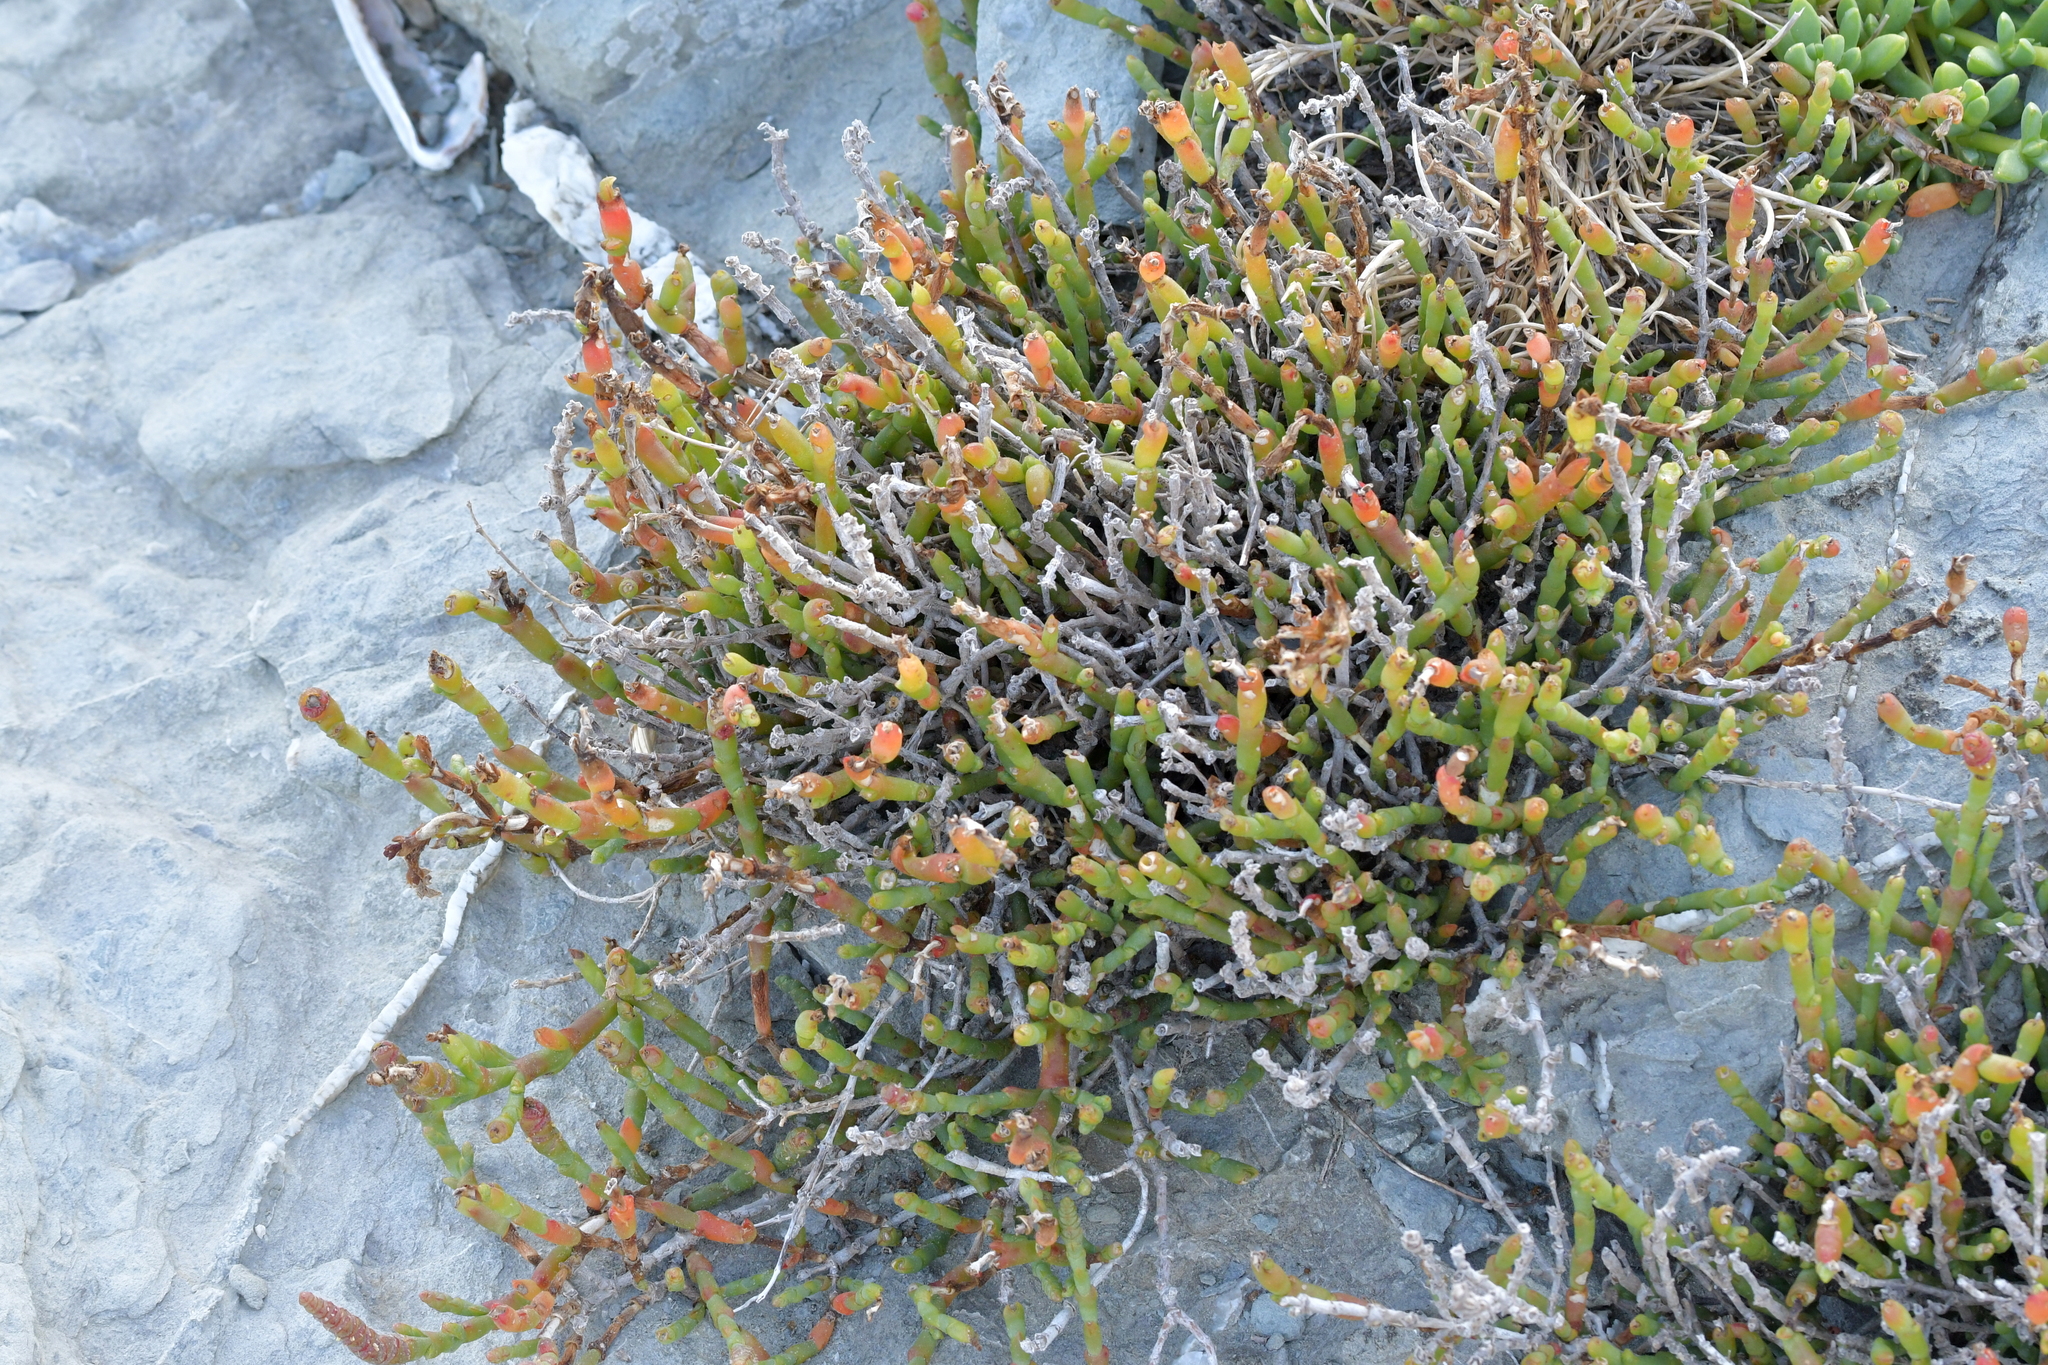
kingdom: Plantae
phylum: Tracheophyta
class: Magnoliopsida
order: Caryophyllales
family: Amaranthaceae
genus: Salicornia
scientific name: Salicornia quinqueflora
